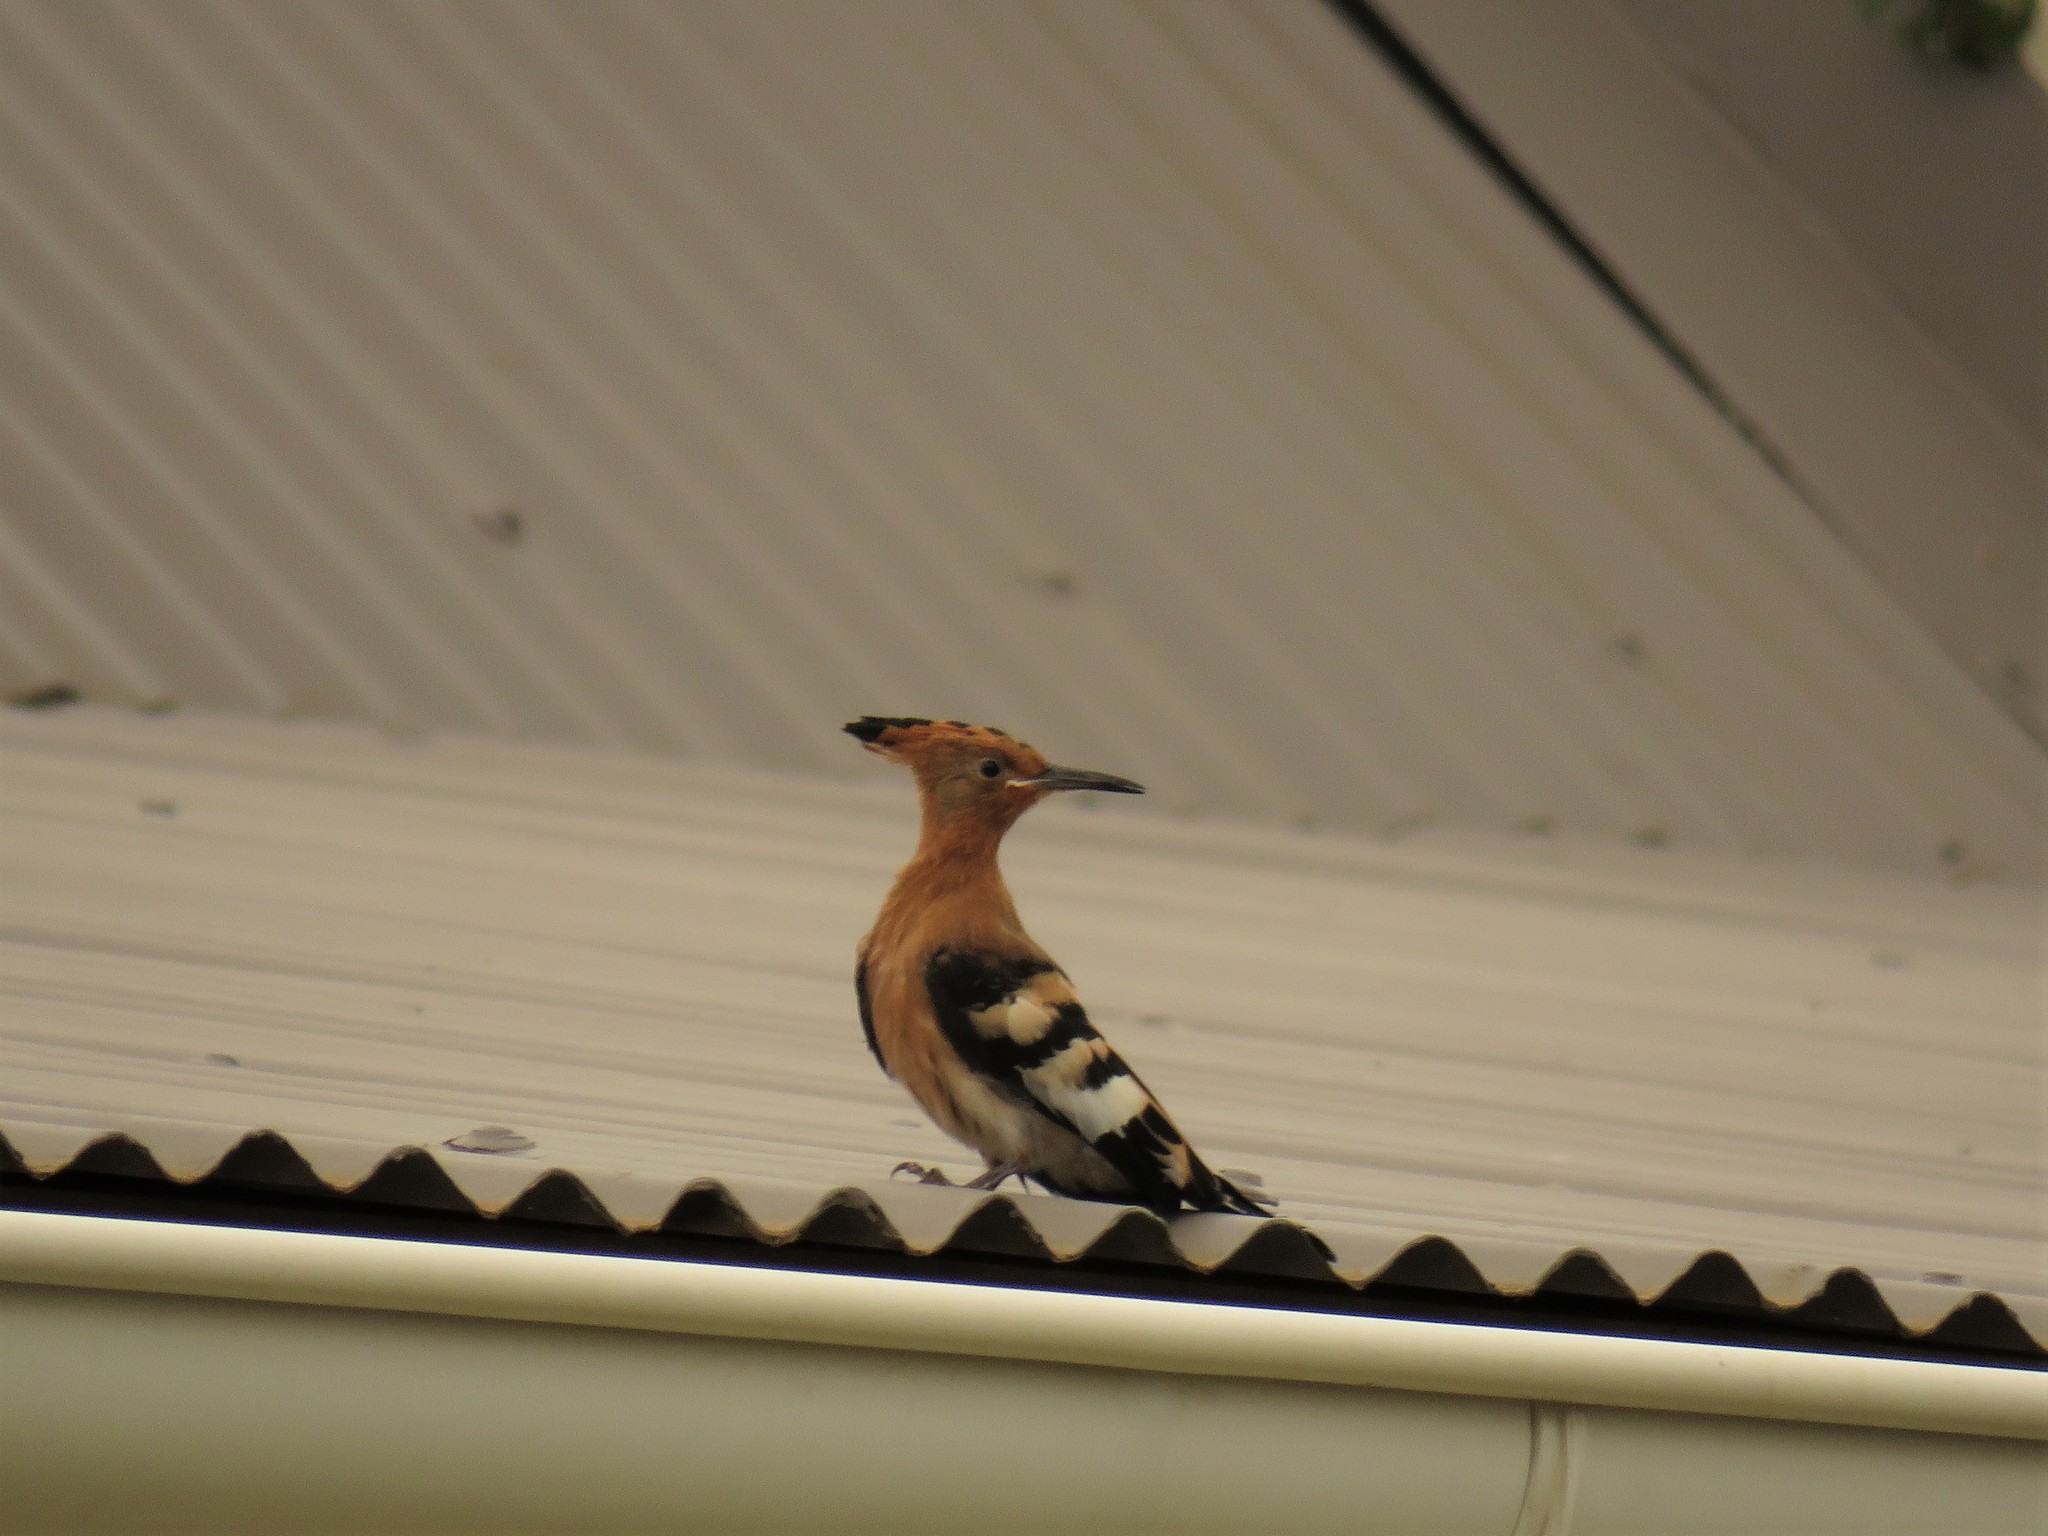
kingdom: Animalia
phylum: Chordata
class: Aves
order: Bucerotiformes
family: Upupidae
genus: Upupa
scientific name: Upupa africana
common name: African hoopoe
